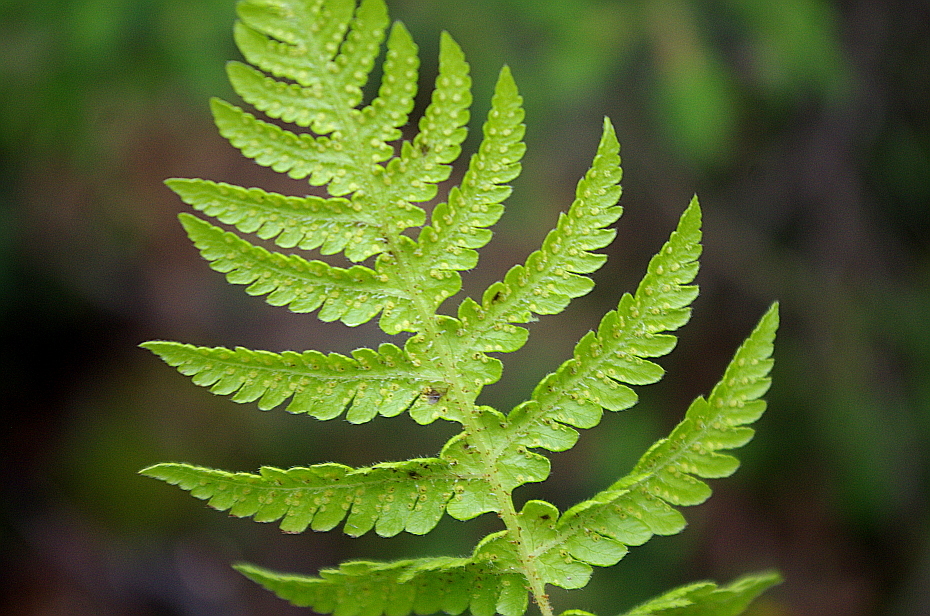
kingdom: Plantae
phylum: Tracheophyta
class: Polypodiopsida
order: Polypodiales
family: Thelypteridaceae
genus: Phegopteris
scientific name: Phegopteris connectilis
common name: Beech fern
